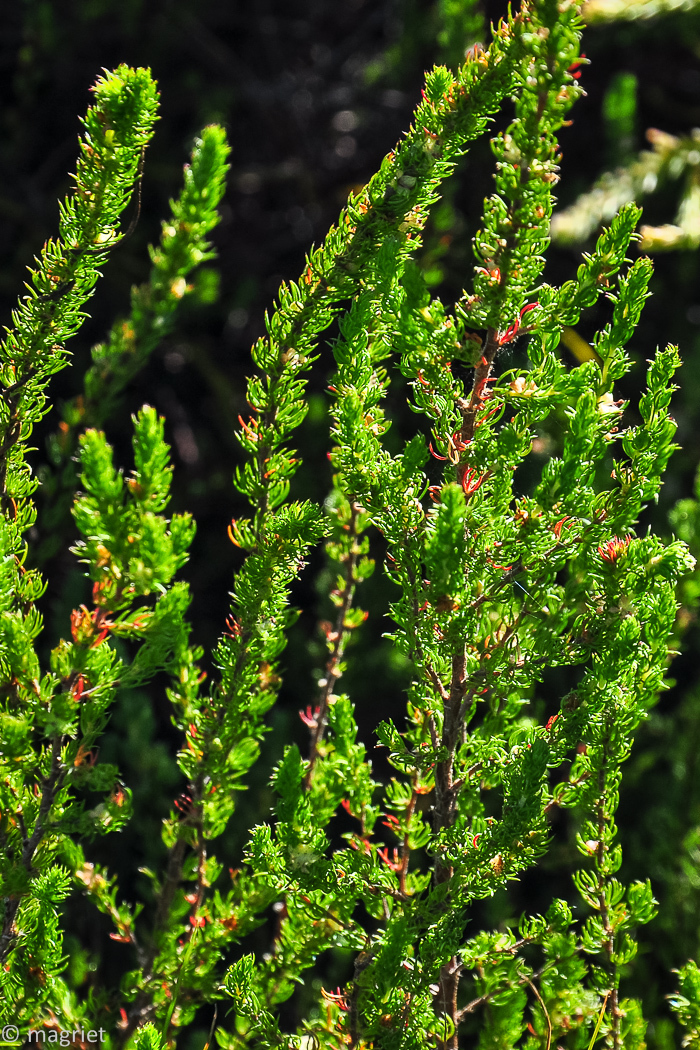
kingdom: Plantae
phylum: Tracheophyta
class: Magnoliopsida
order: Rosales
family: Rosaceae
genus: Cliffortia
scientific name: Cliffortia subsetacea
